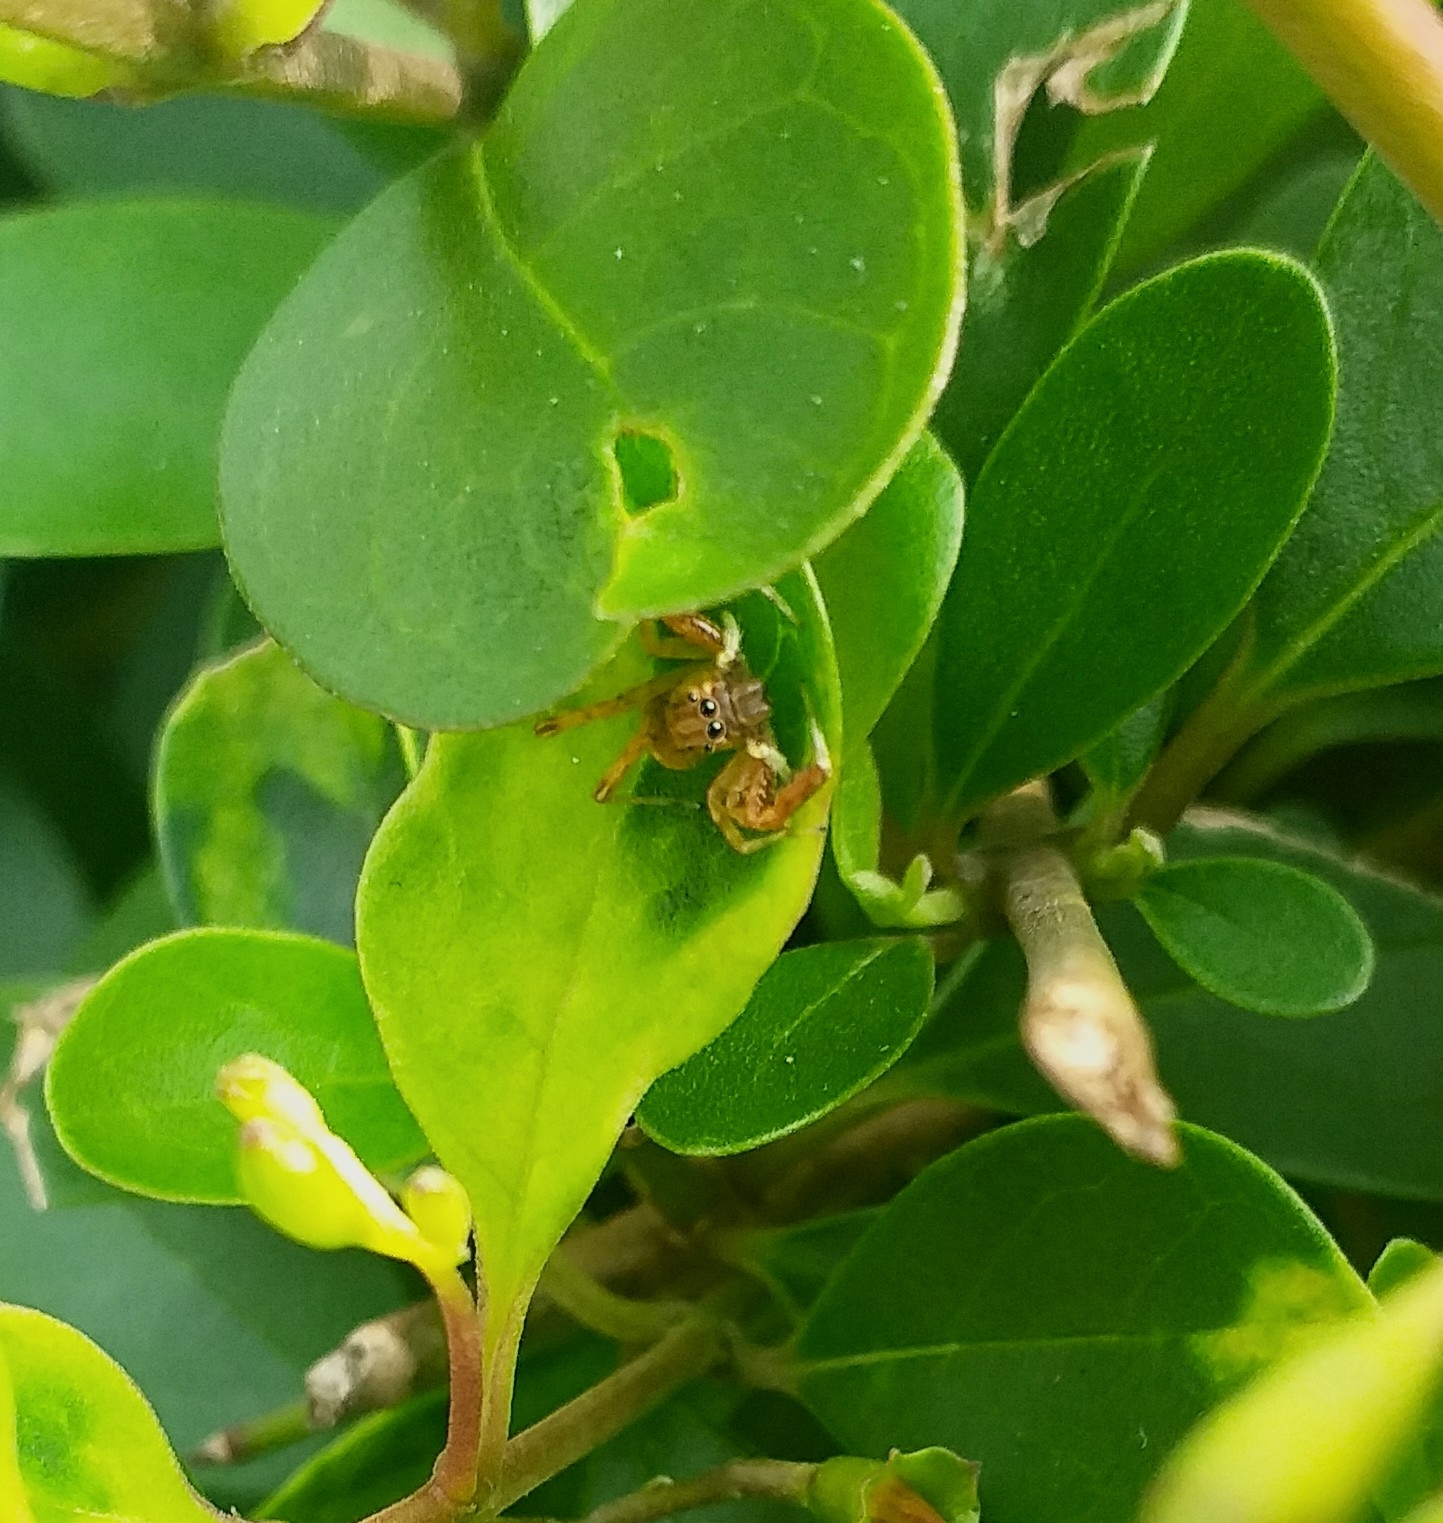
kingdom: Animalia
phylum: Arthropoda
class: Arachnida
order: Araneae
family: Salticidae
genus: Brettus
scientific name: Brettus cingulatus
